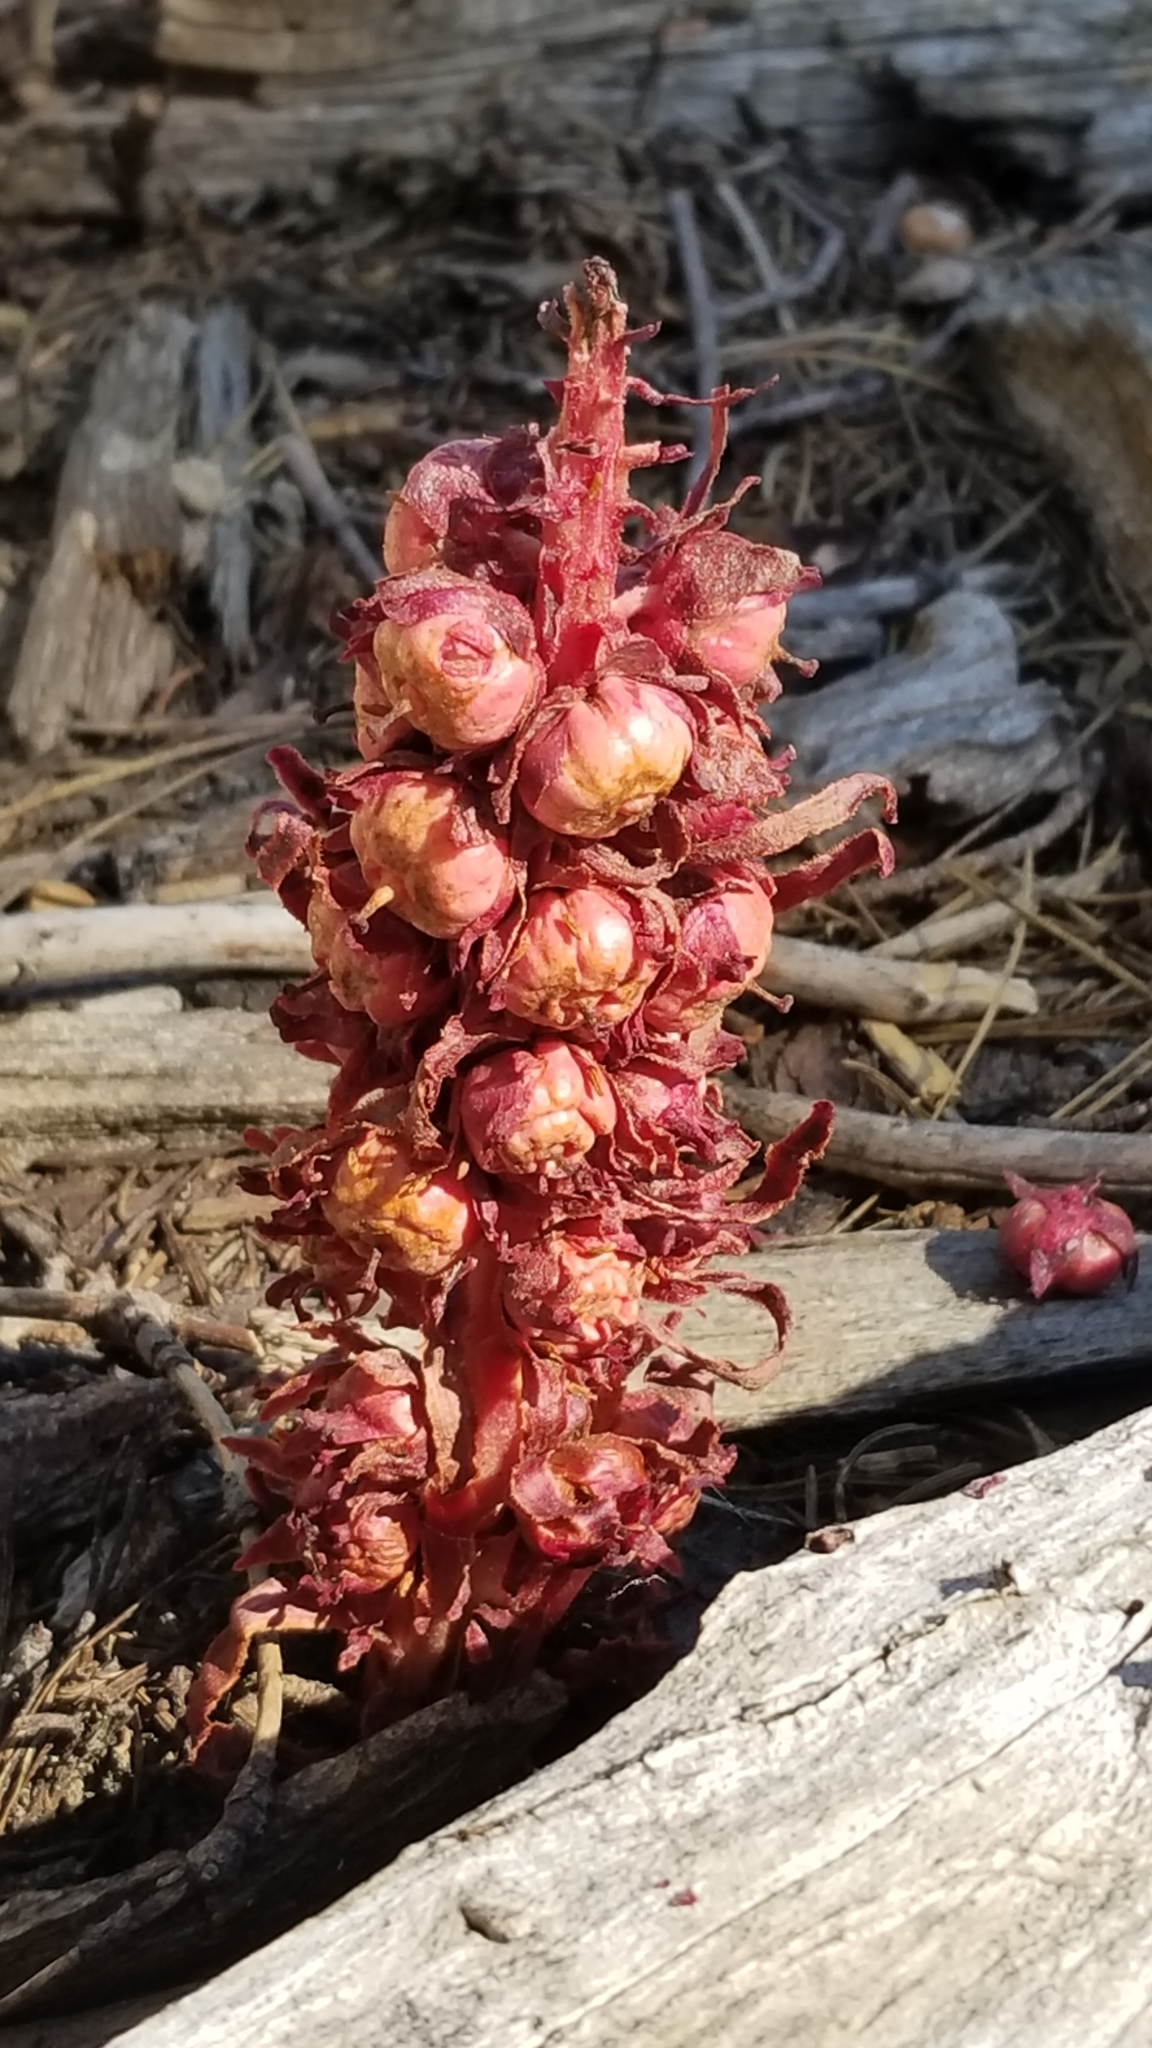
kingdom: Plantae
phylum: Tracheophyta
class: Magnoliopsida
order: Ericales
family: Ericaceae
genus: Sarcodes
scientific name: Sarcodes sanguinea
